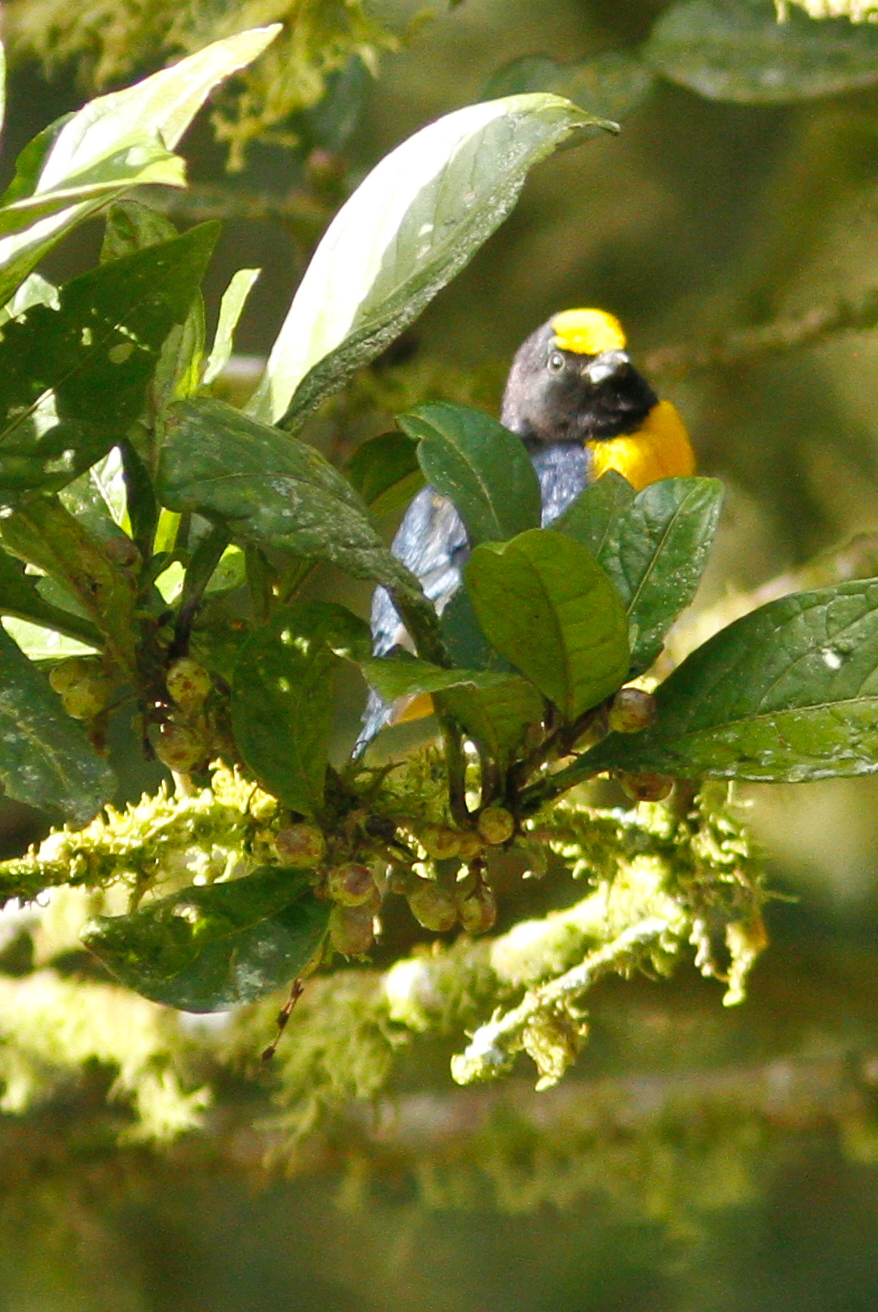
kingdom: Animalia
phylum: Chordata
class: Aves
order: Passeriformes
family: Fringillidae
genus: Euphonia
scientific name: Euphonia xanthogaster
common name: Orange-bellied euphonia
